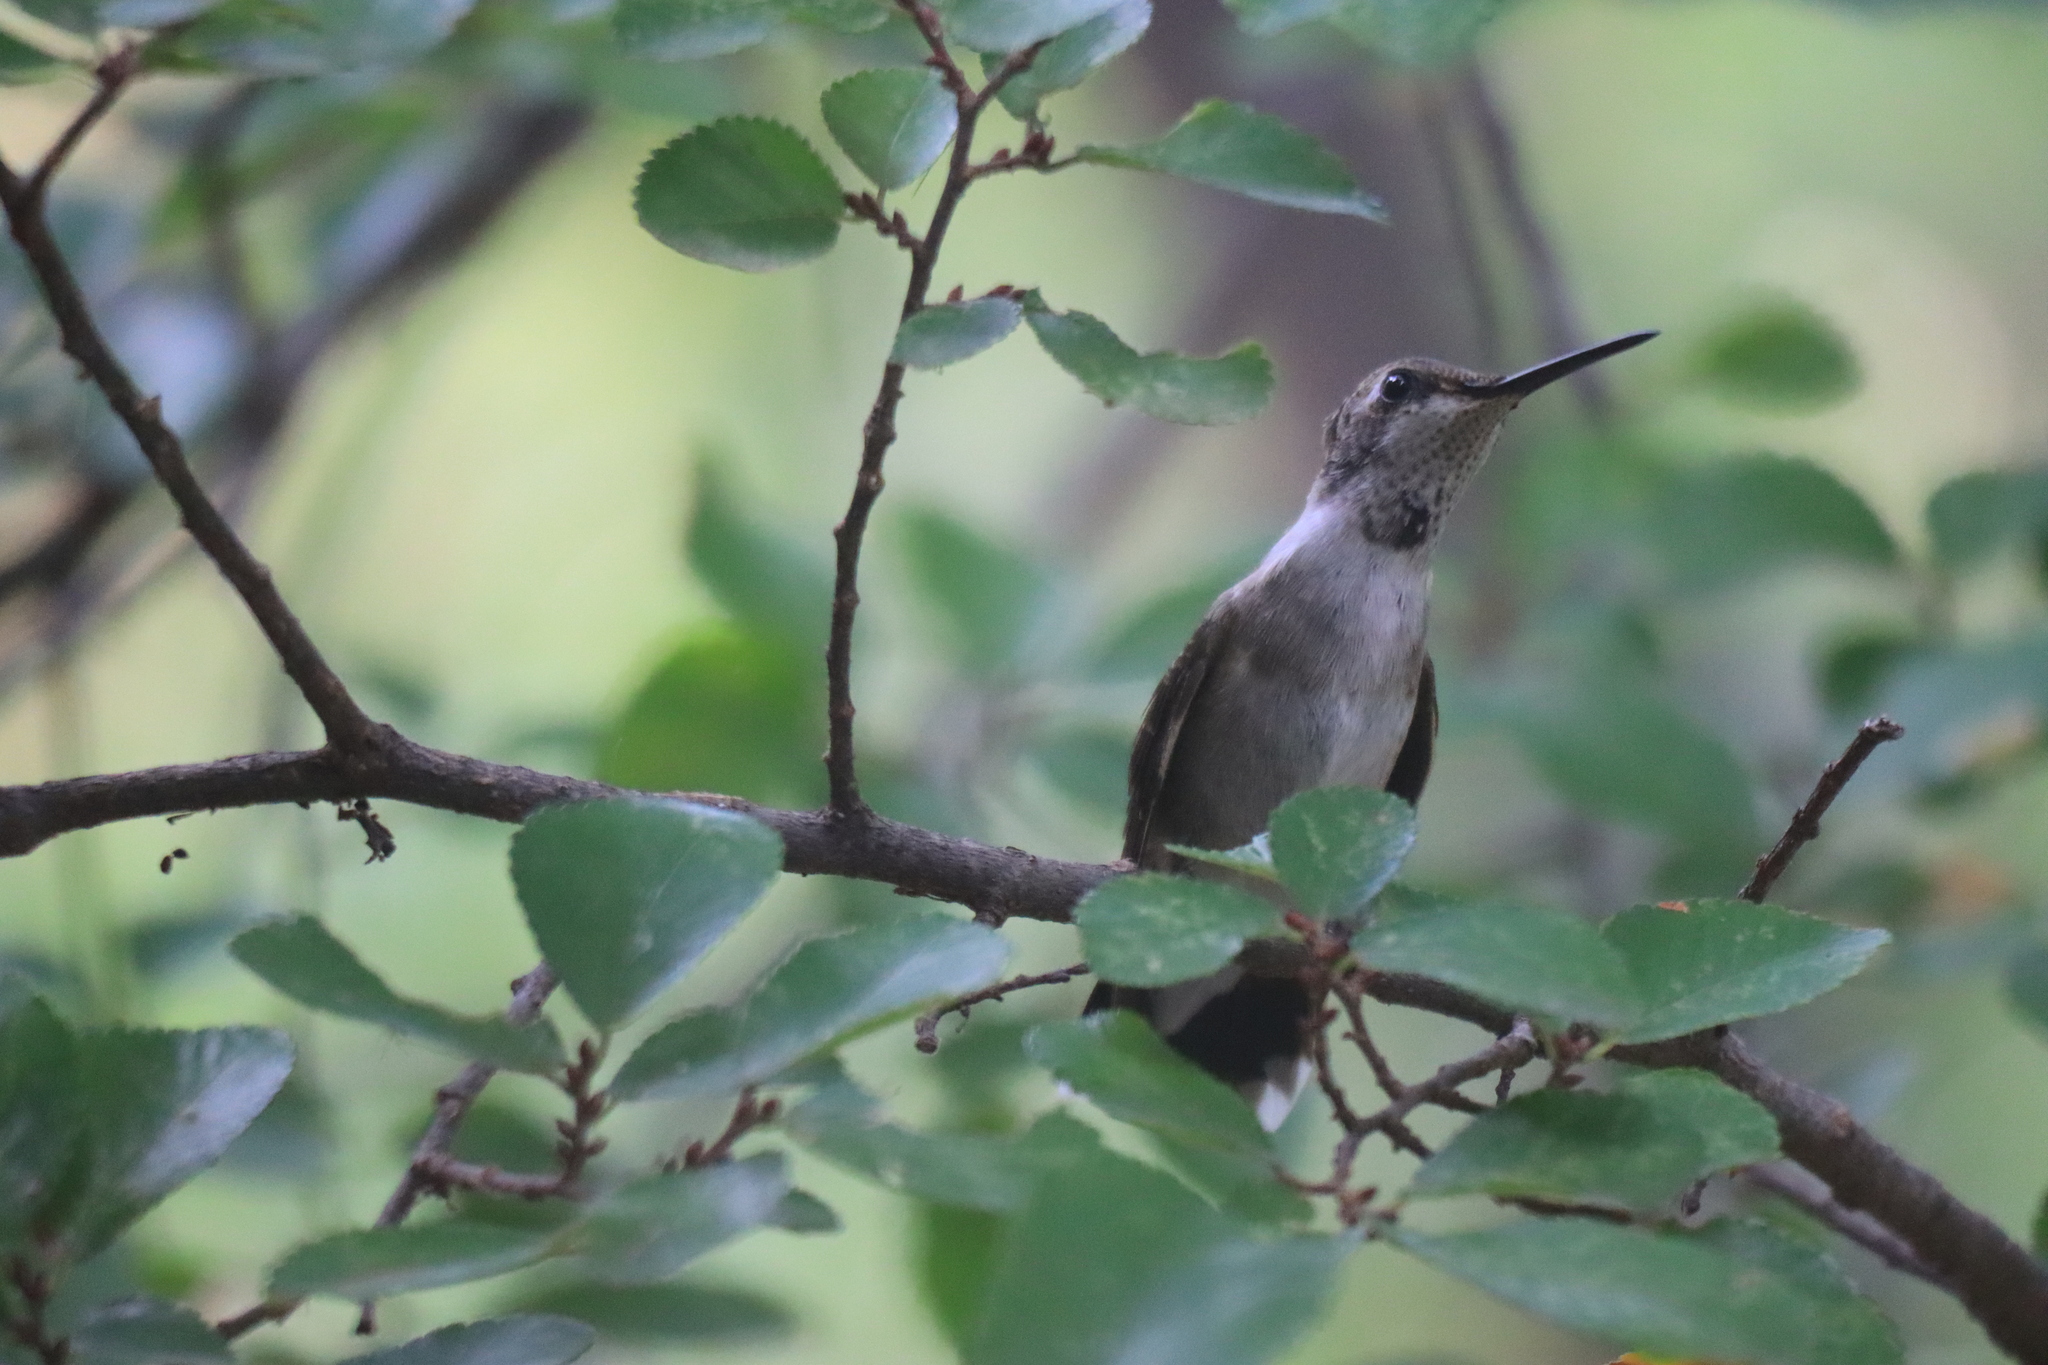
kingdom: Animalia
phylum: Chordata
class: Aves
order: Apodiformes
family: Trochilidae
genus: Archilochus
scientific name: Archilochus alexandri
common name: Black-chinned hummingbird
